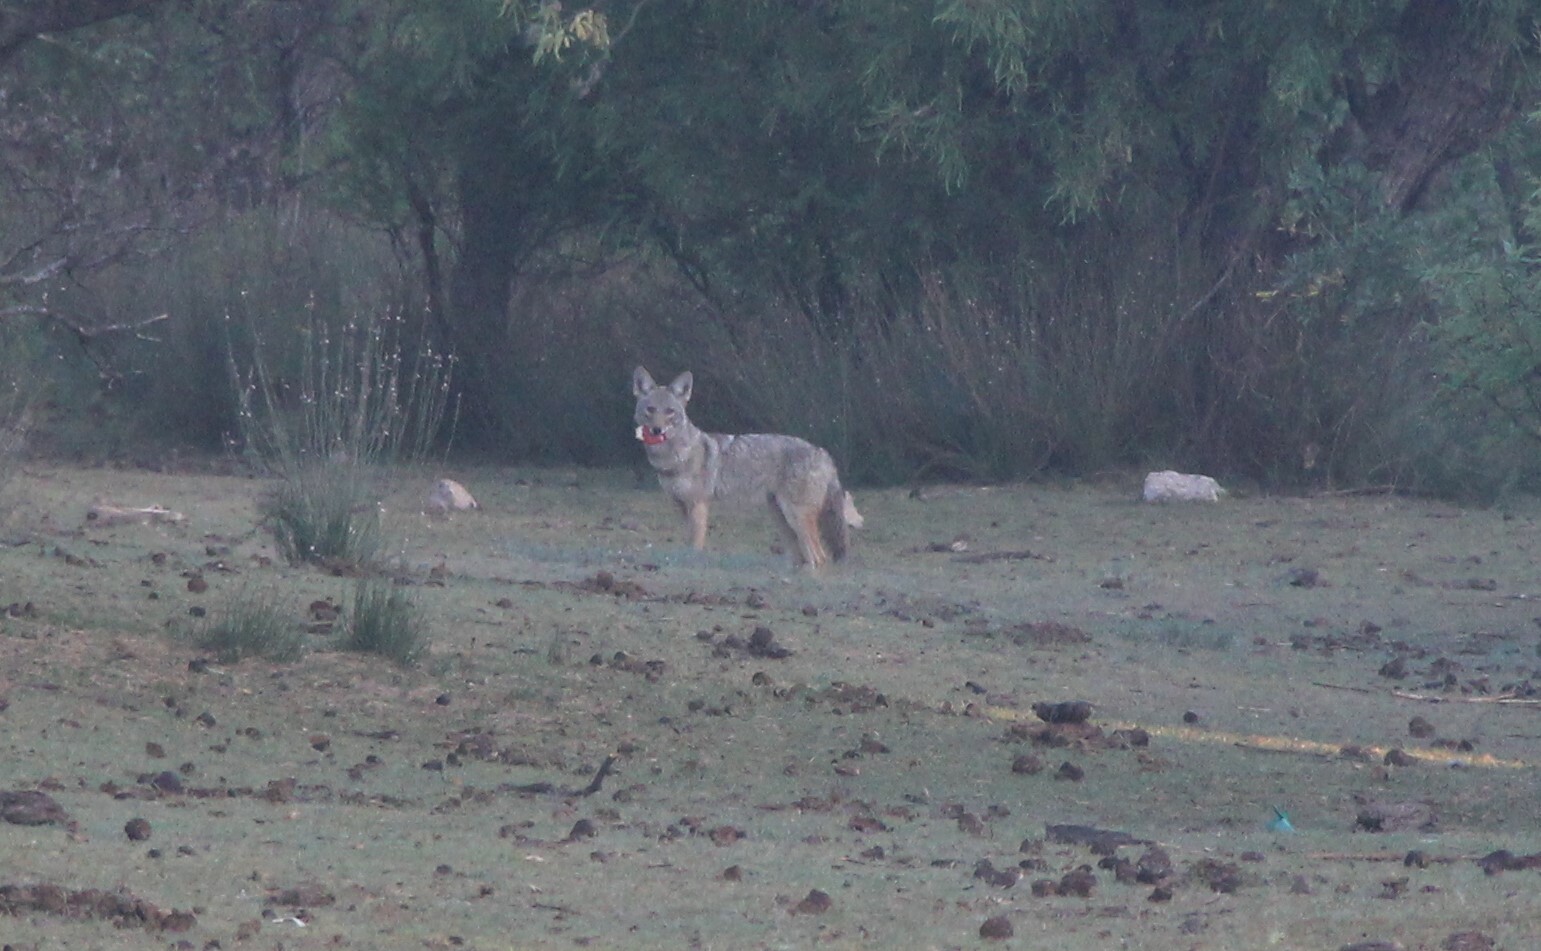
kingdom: Animalia
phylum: Chordata
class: Mammalia
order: Carnivora
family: Canidae
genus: Canis
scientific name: Canis latrans
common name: Coyote
